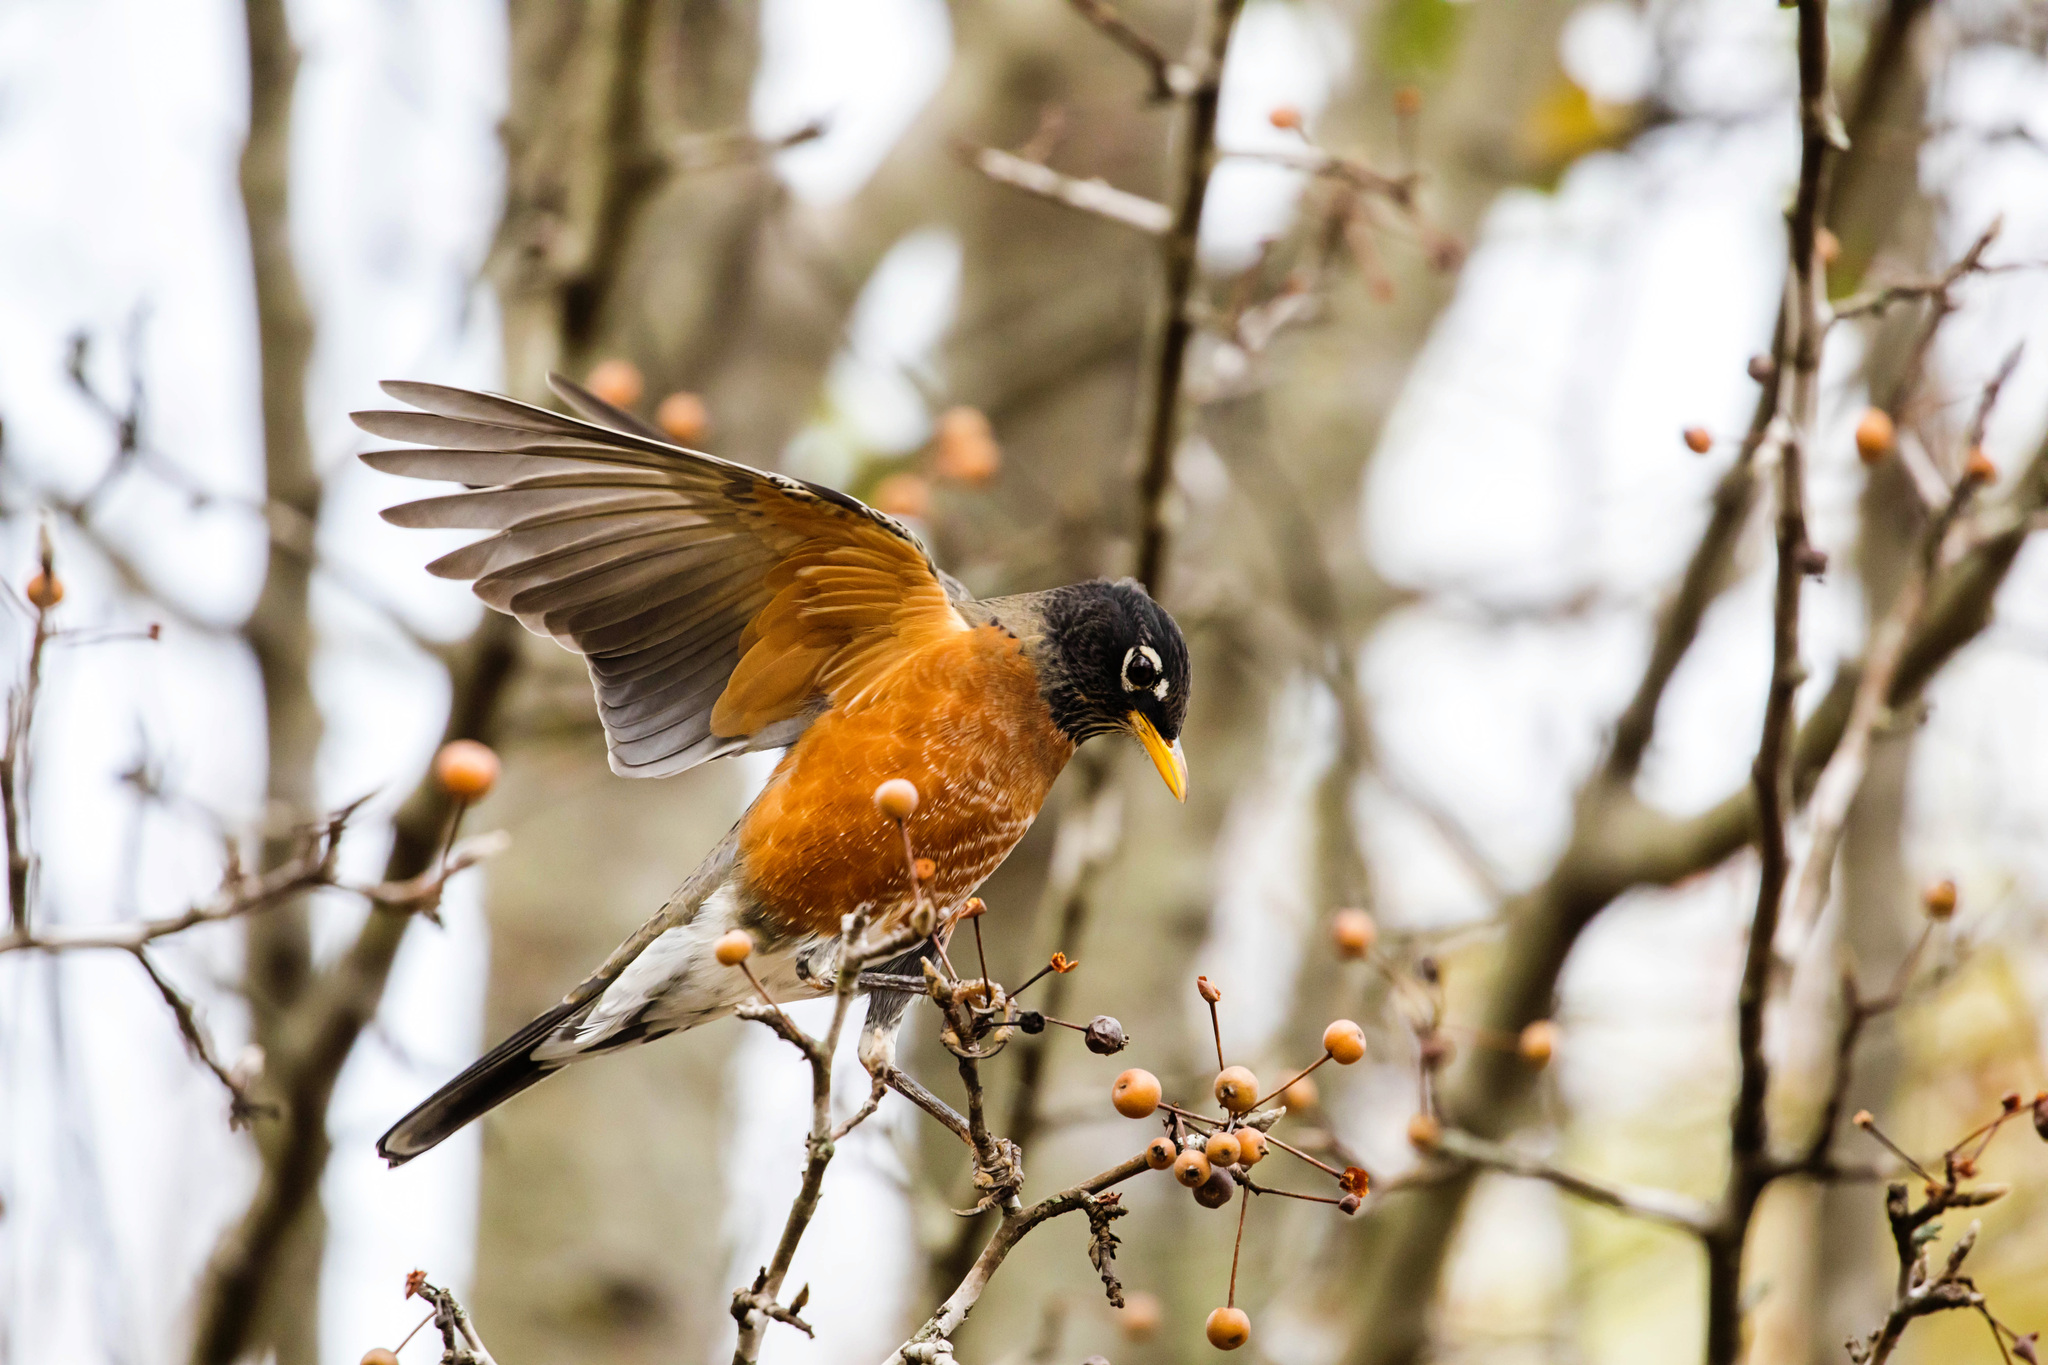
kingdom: Animalia
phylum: Chordata
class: Aves
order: Passeriformes
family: Turdidae
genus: Turdus
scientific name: Turdus migratorius
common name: American robin
